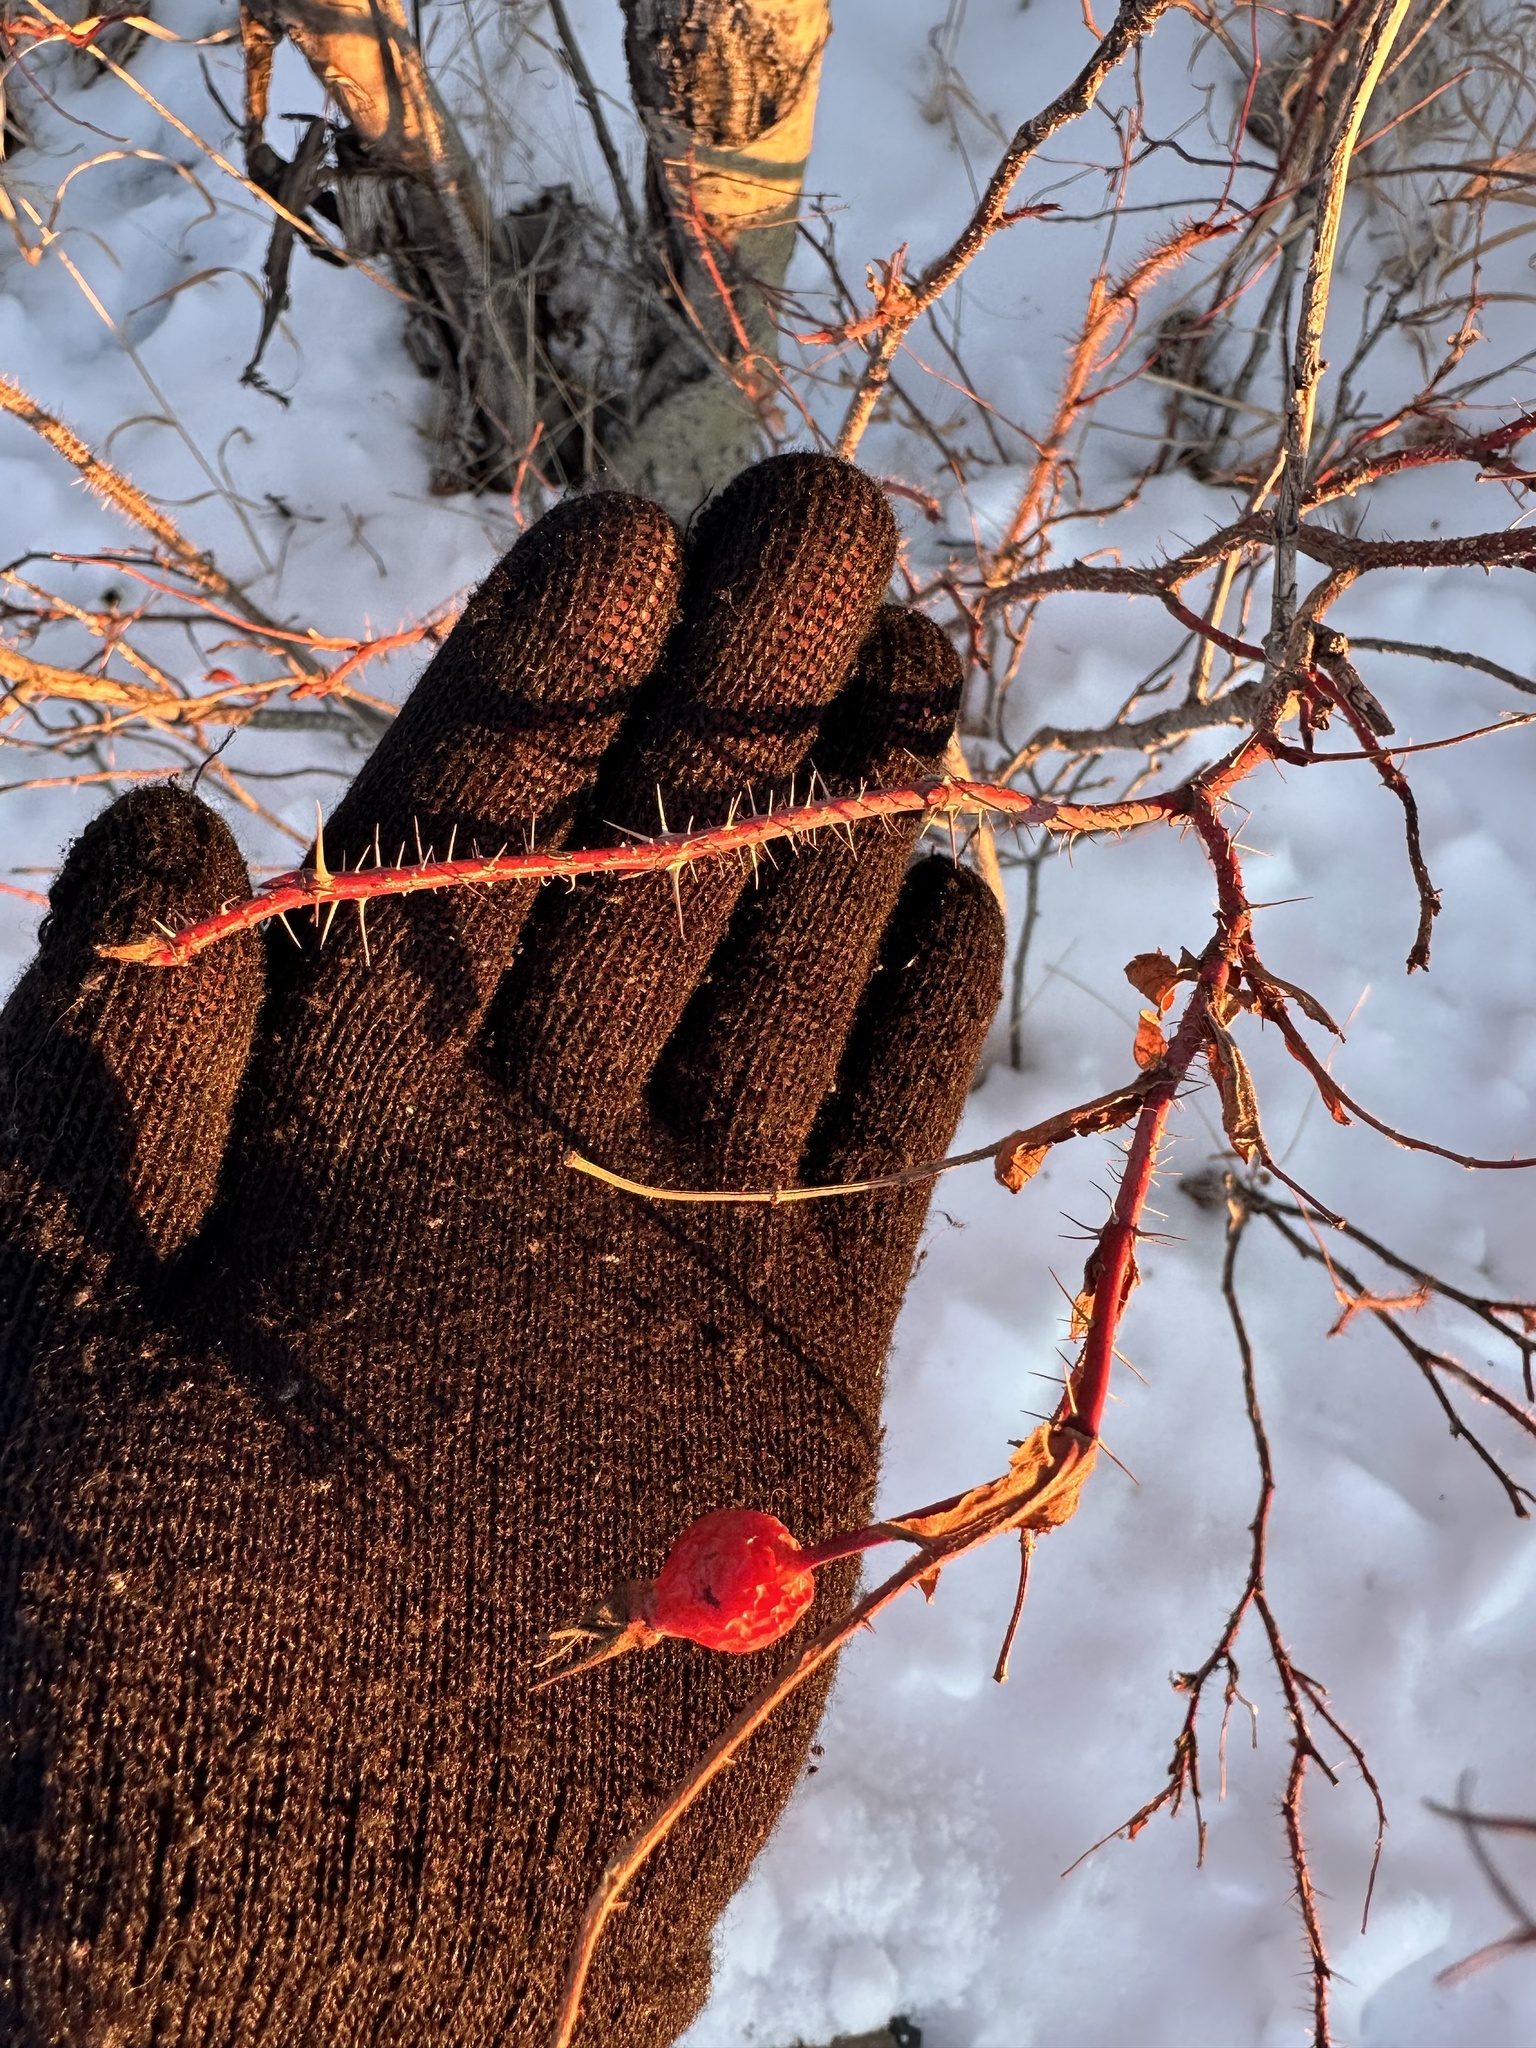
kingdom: Plantae
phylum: Tracheophyta
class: Magnoliopsida
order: Rosales
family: Rosaceae
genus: Rosa
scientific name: Rosa acicularis
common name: Prickly rose
